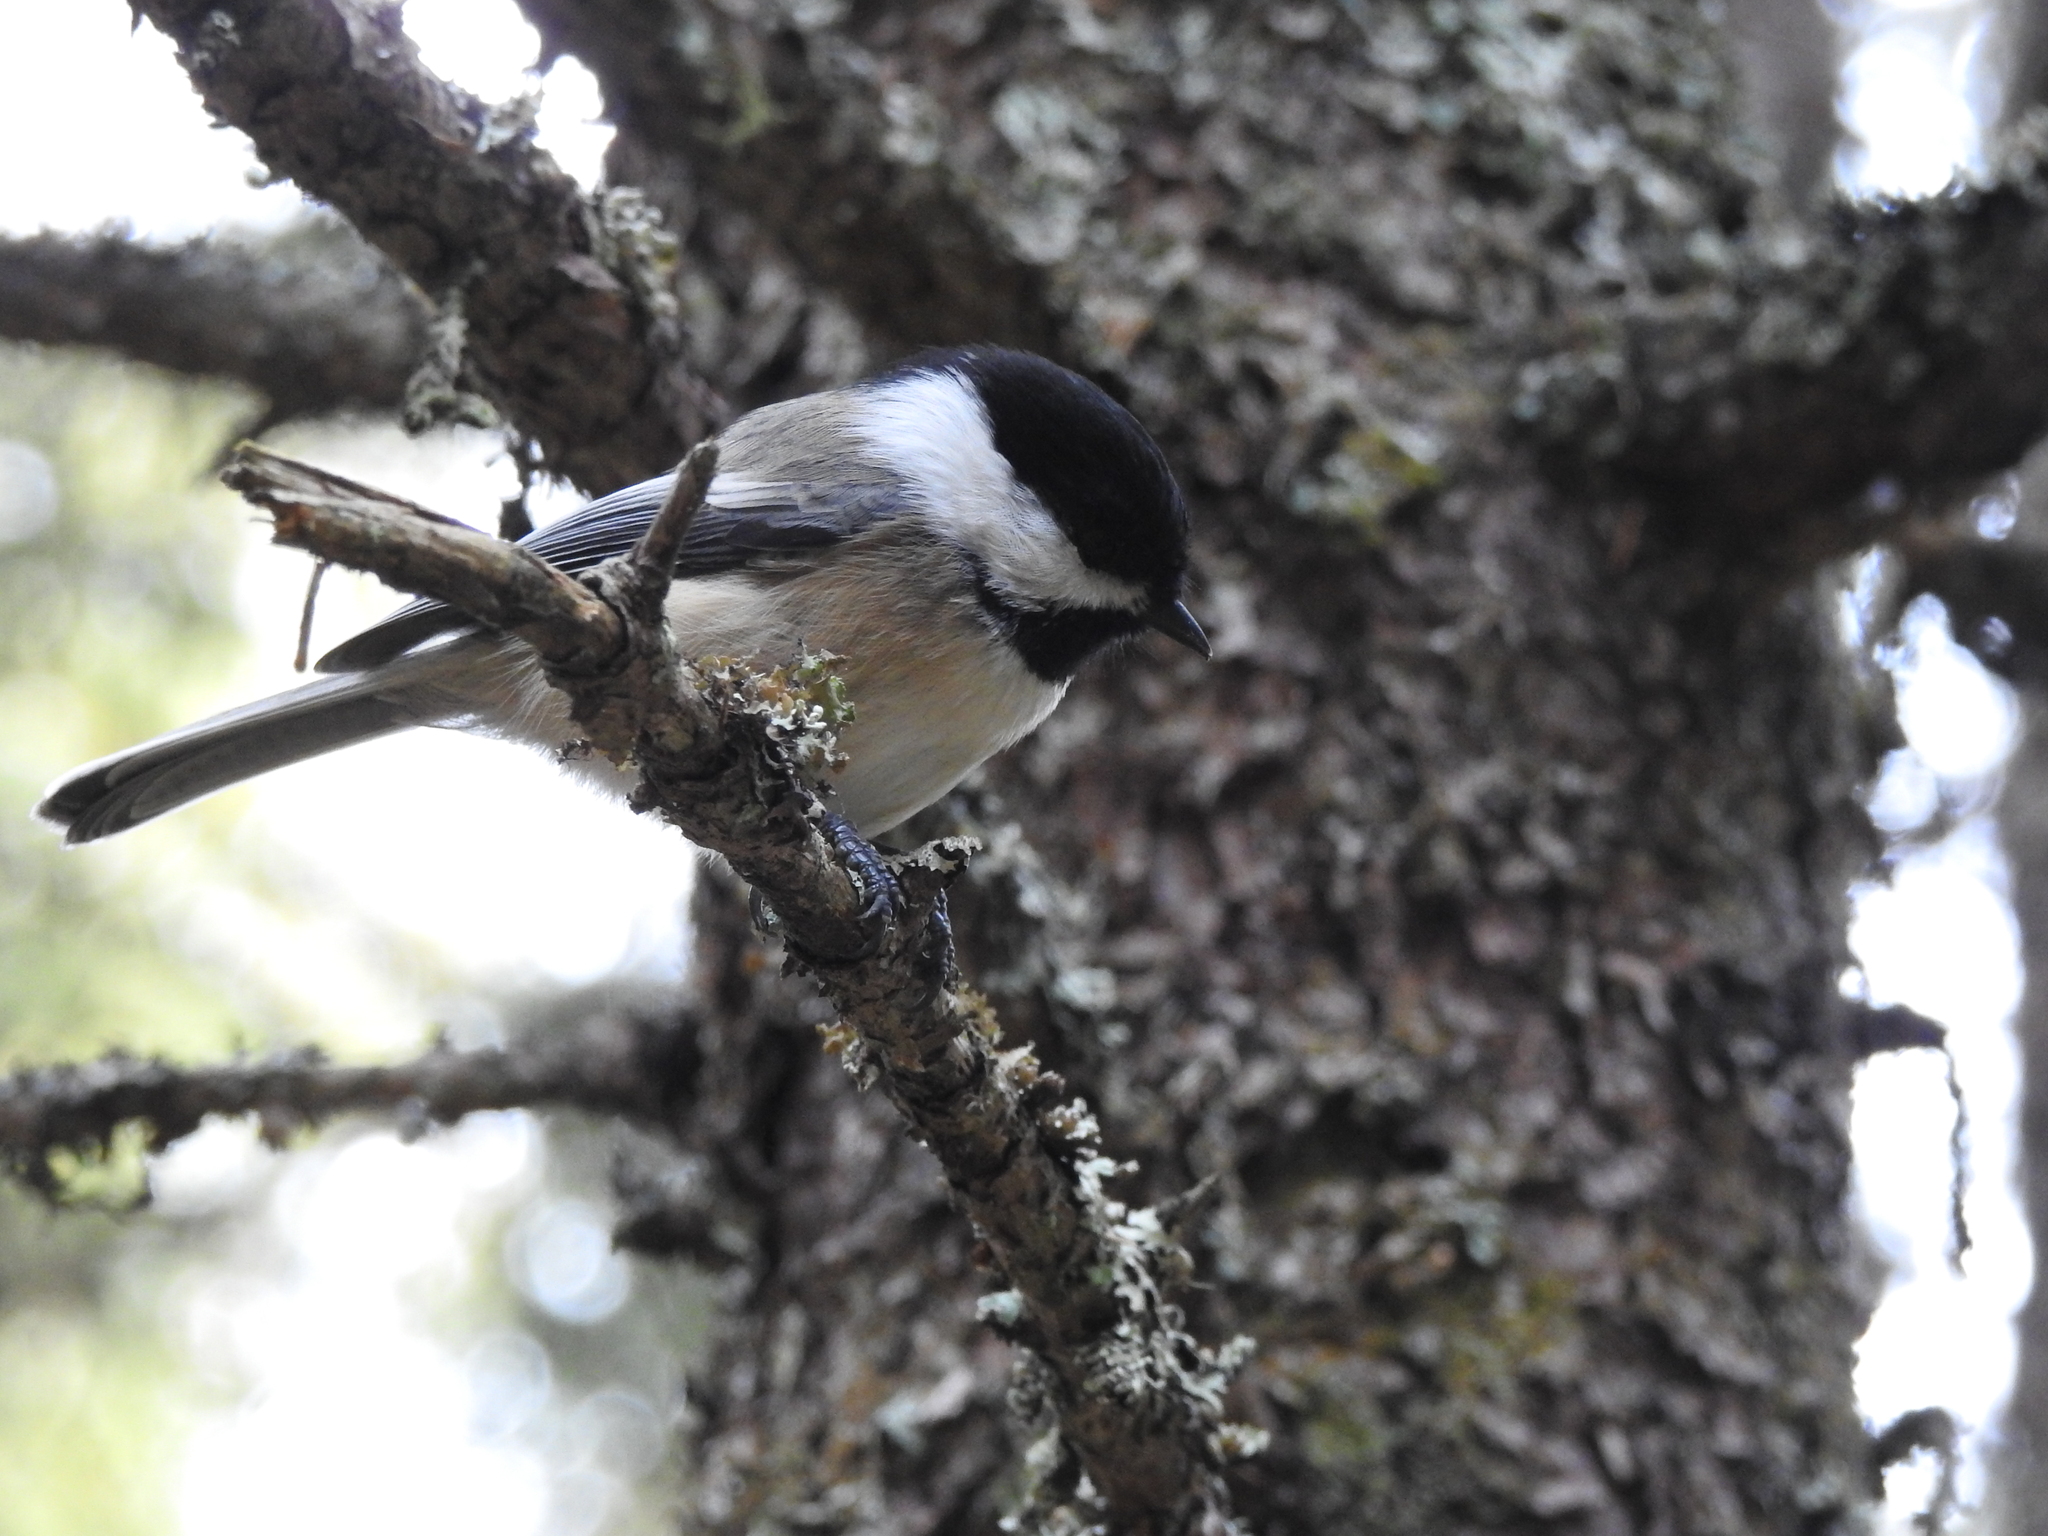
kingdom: Animalia
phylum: Chordata
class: Aves
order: Passeriformes
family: Paridae
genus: Poecile
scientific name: Poecile atricapillus
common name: Black-capped chickadee
